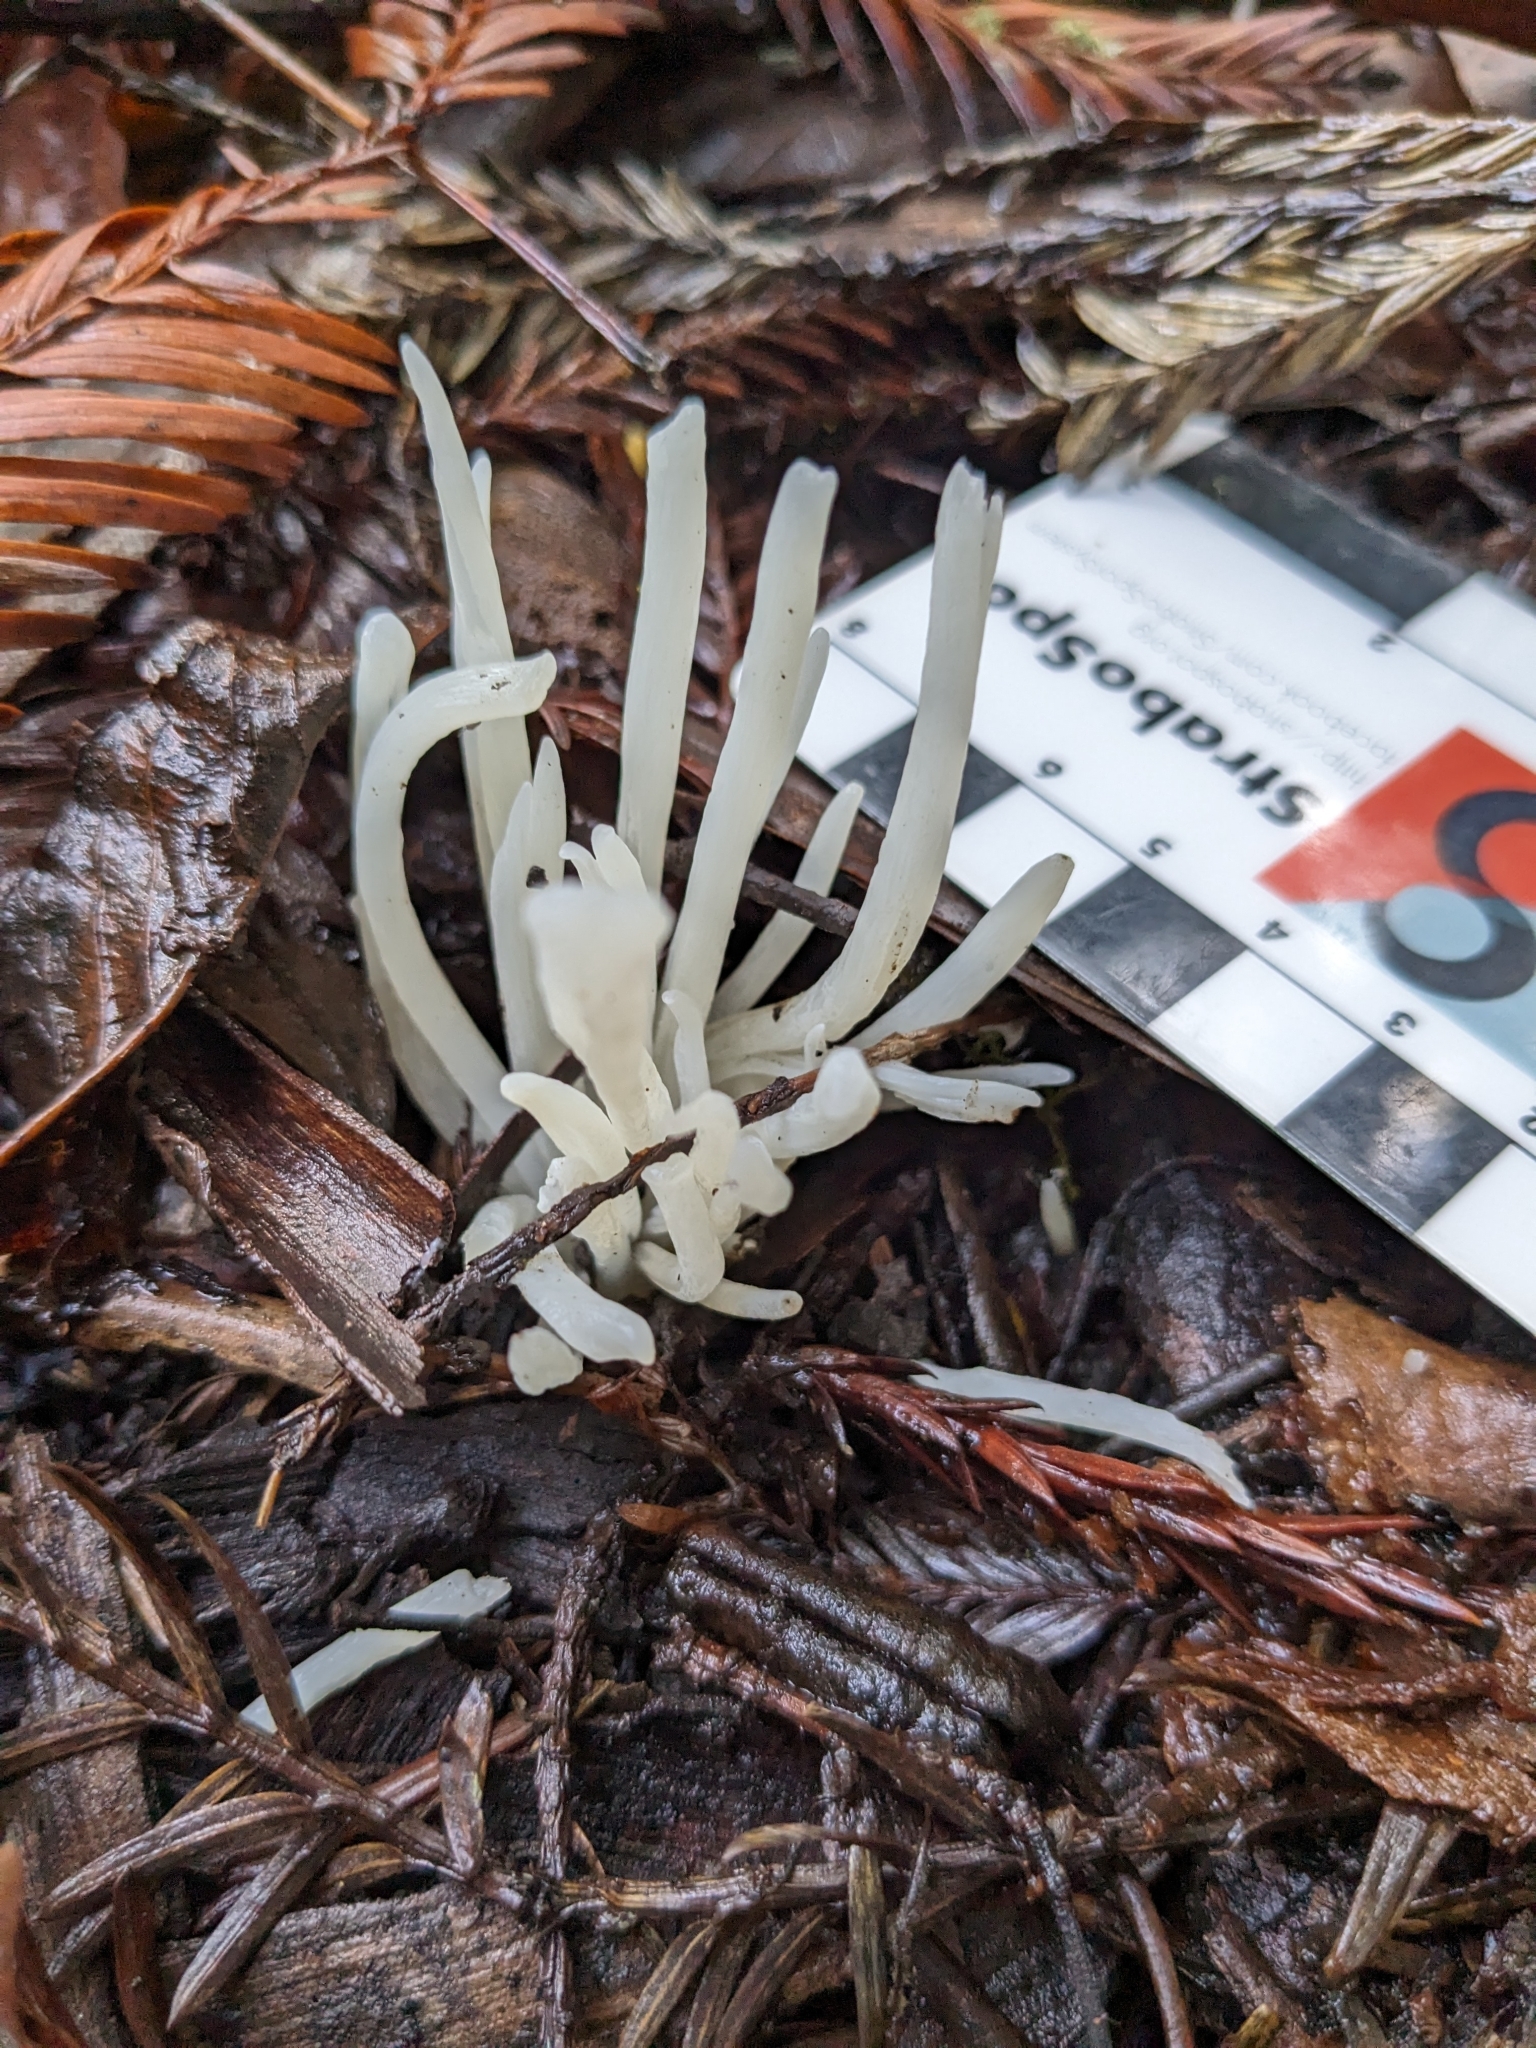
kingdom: Fungi
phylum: Basidiomycota
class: Agaricomycetes
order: Agaricales
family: Clavariaceae
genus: Clavaria
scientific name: Clavaria fragilis
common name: White spindles
